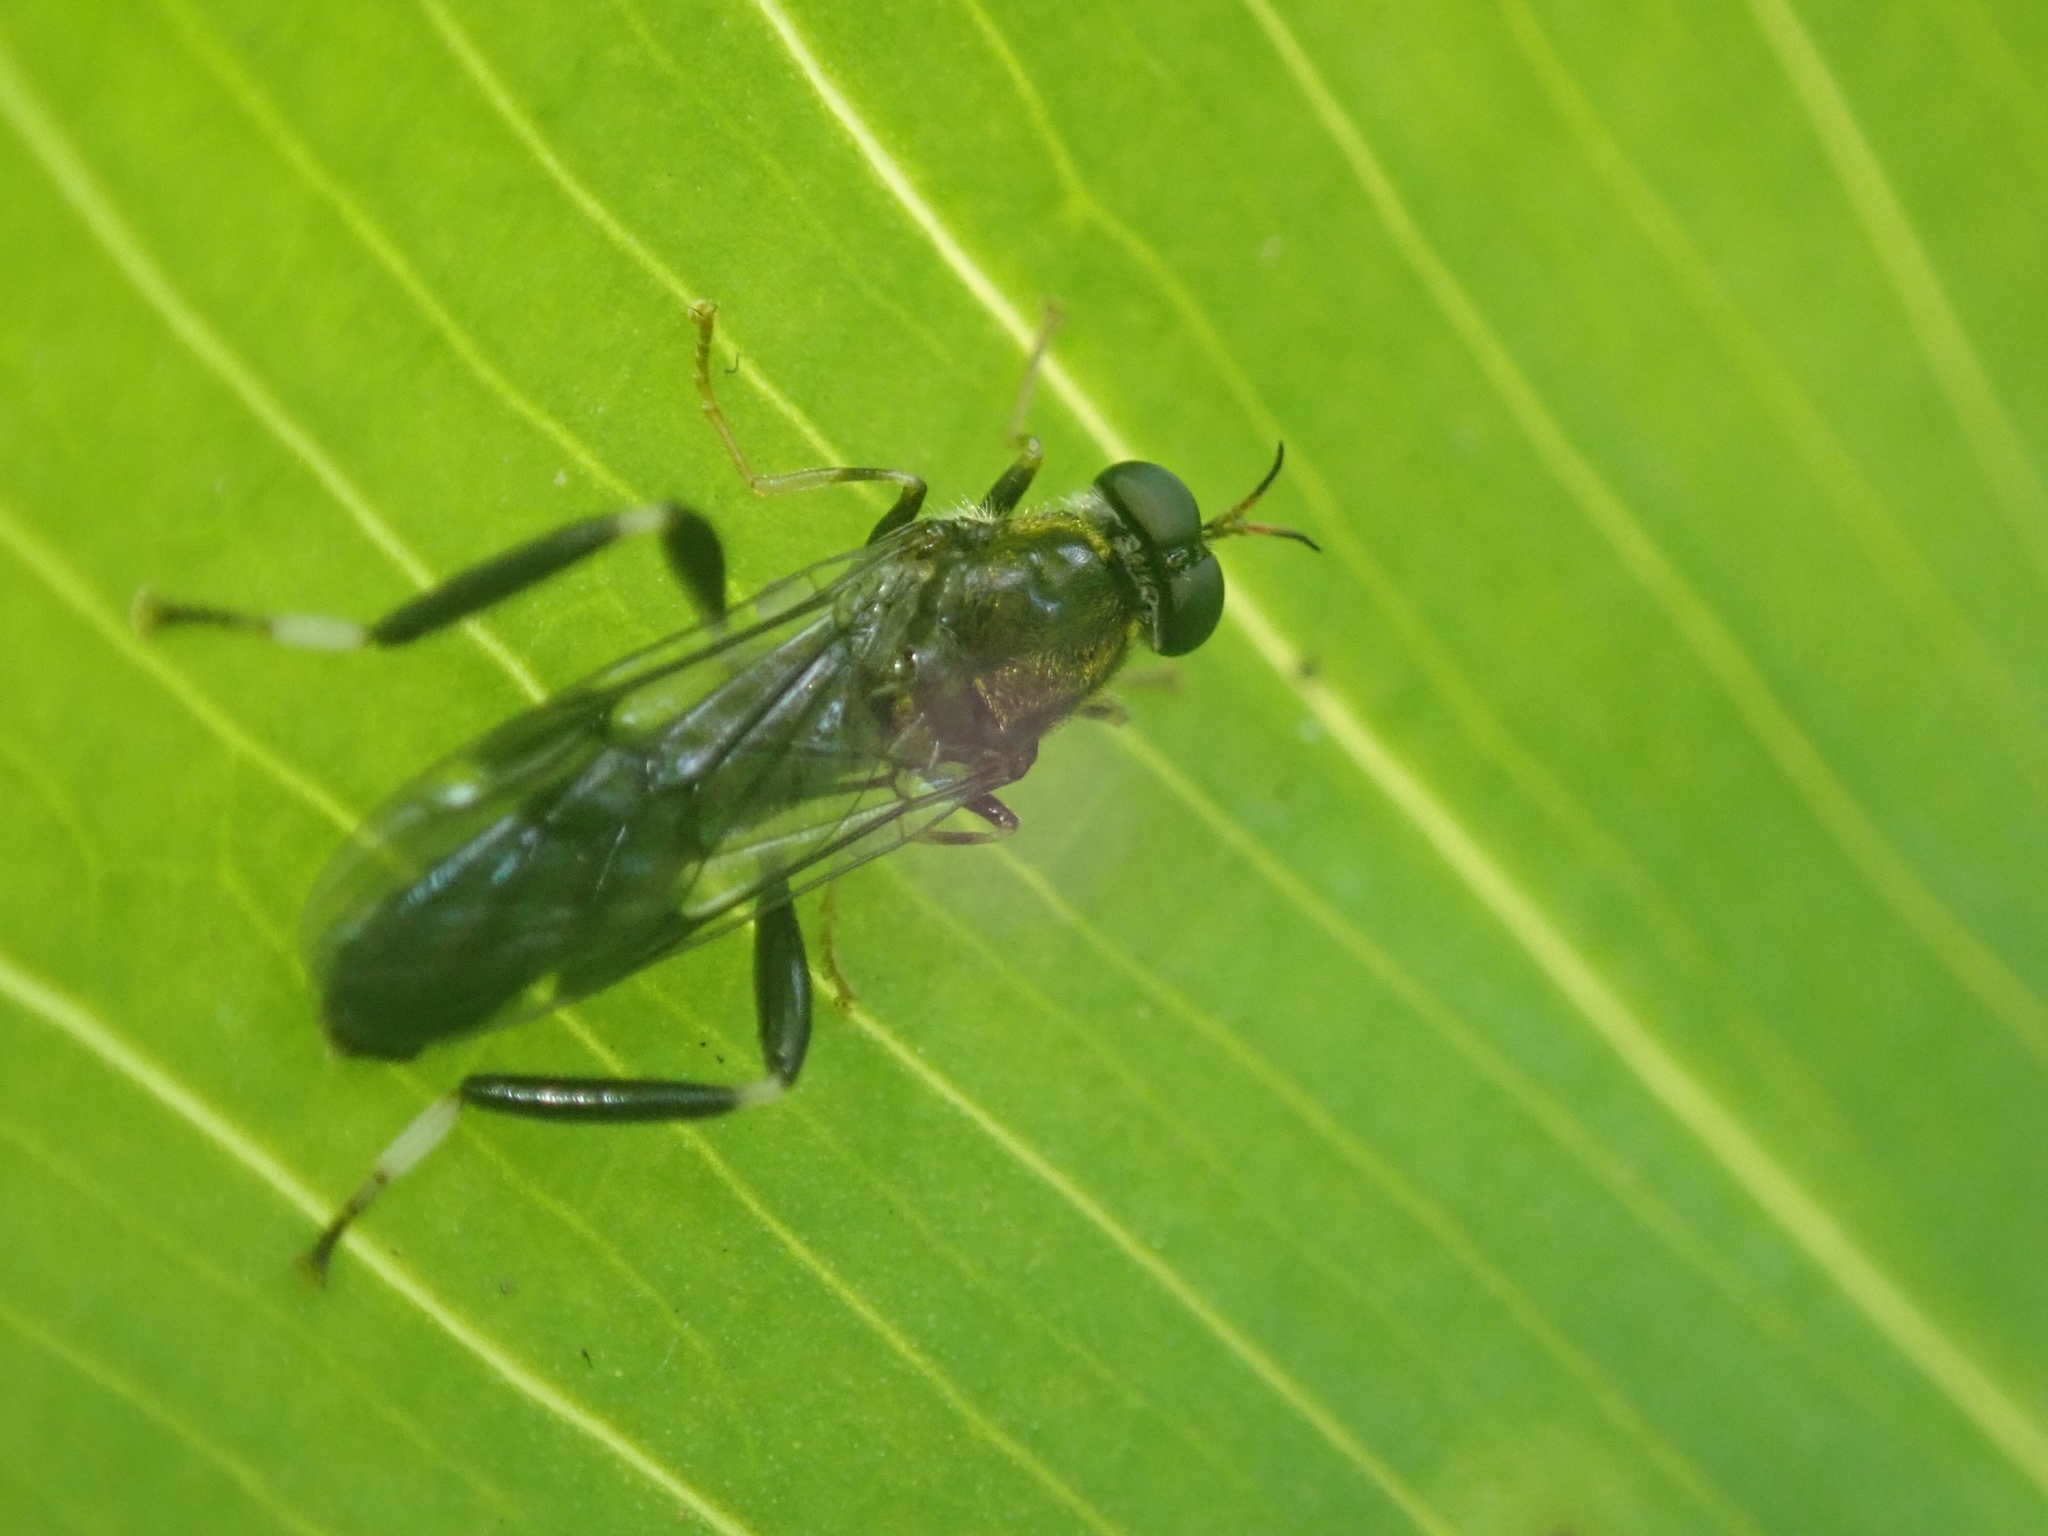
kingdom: Animalia
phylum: Arthropoda
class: Insecta
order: Diptera
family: Stratiomyidae
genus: Exaireta
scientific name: Exaireta spinigera
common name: Blue soldier fly
